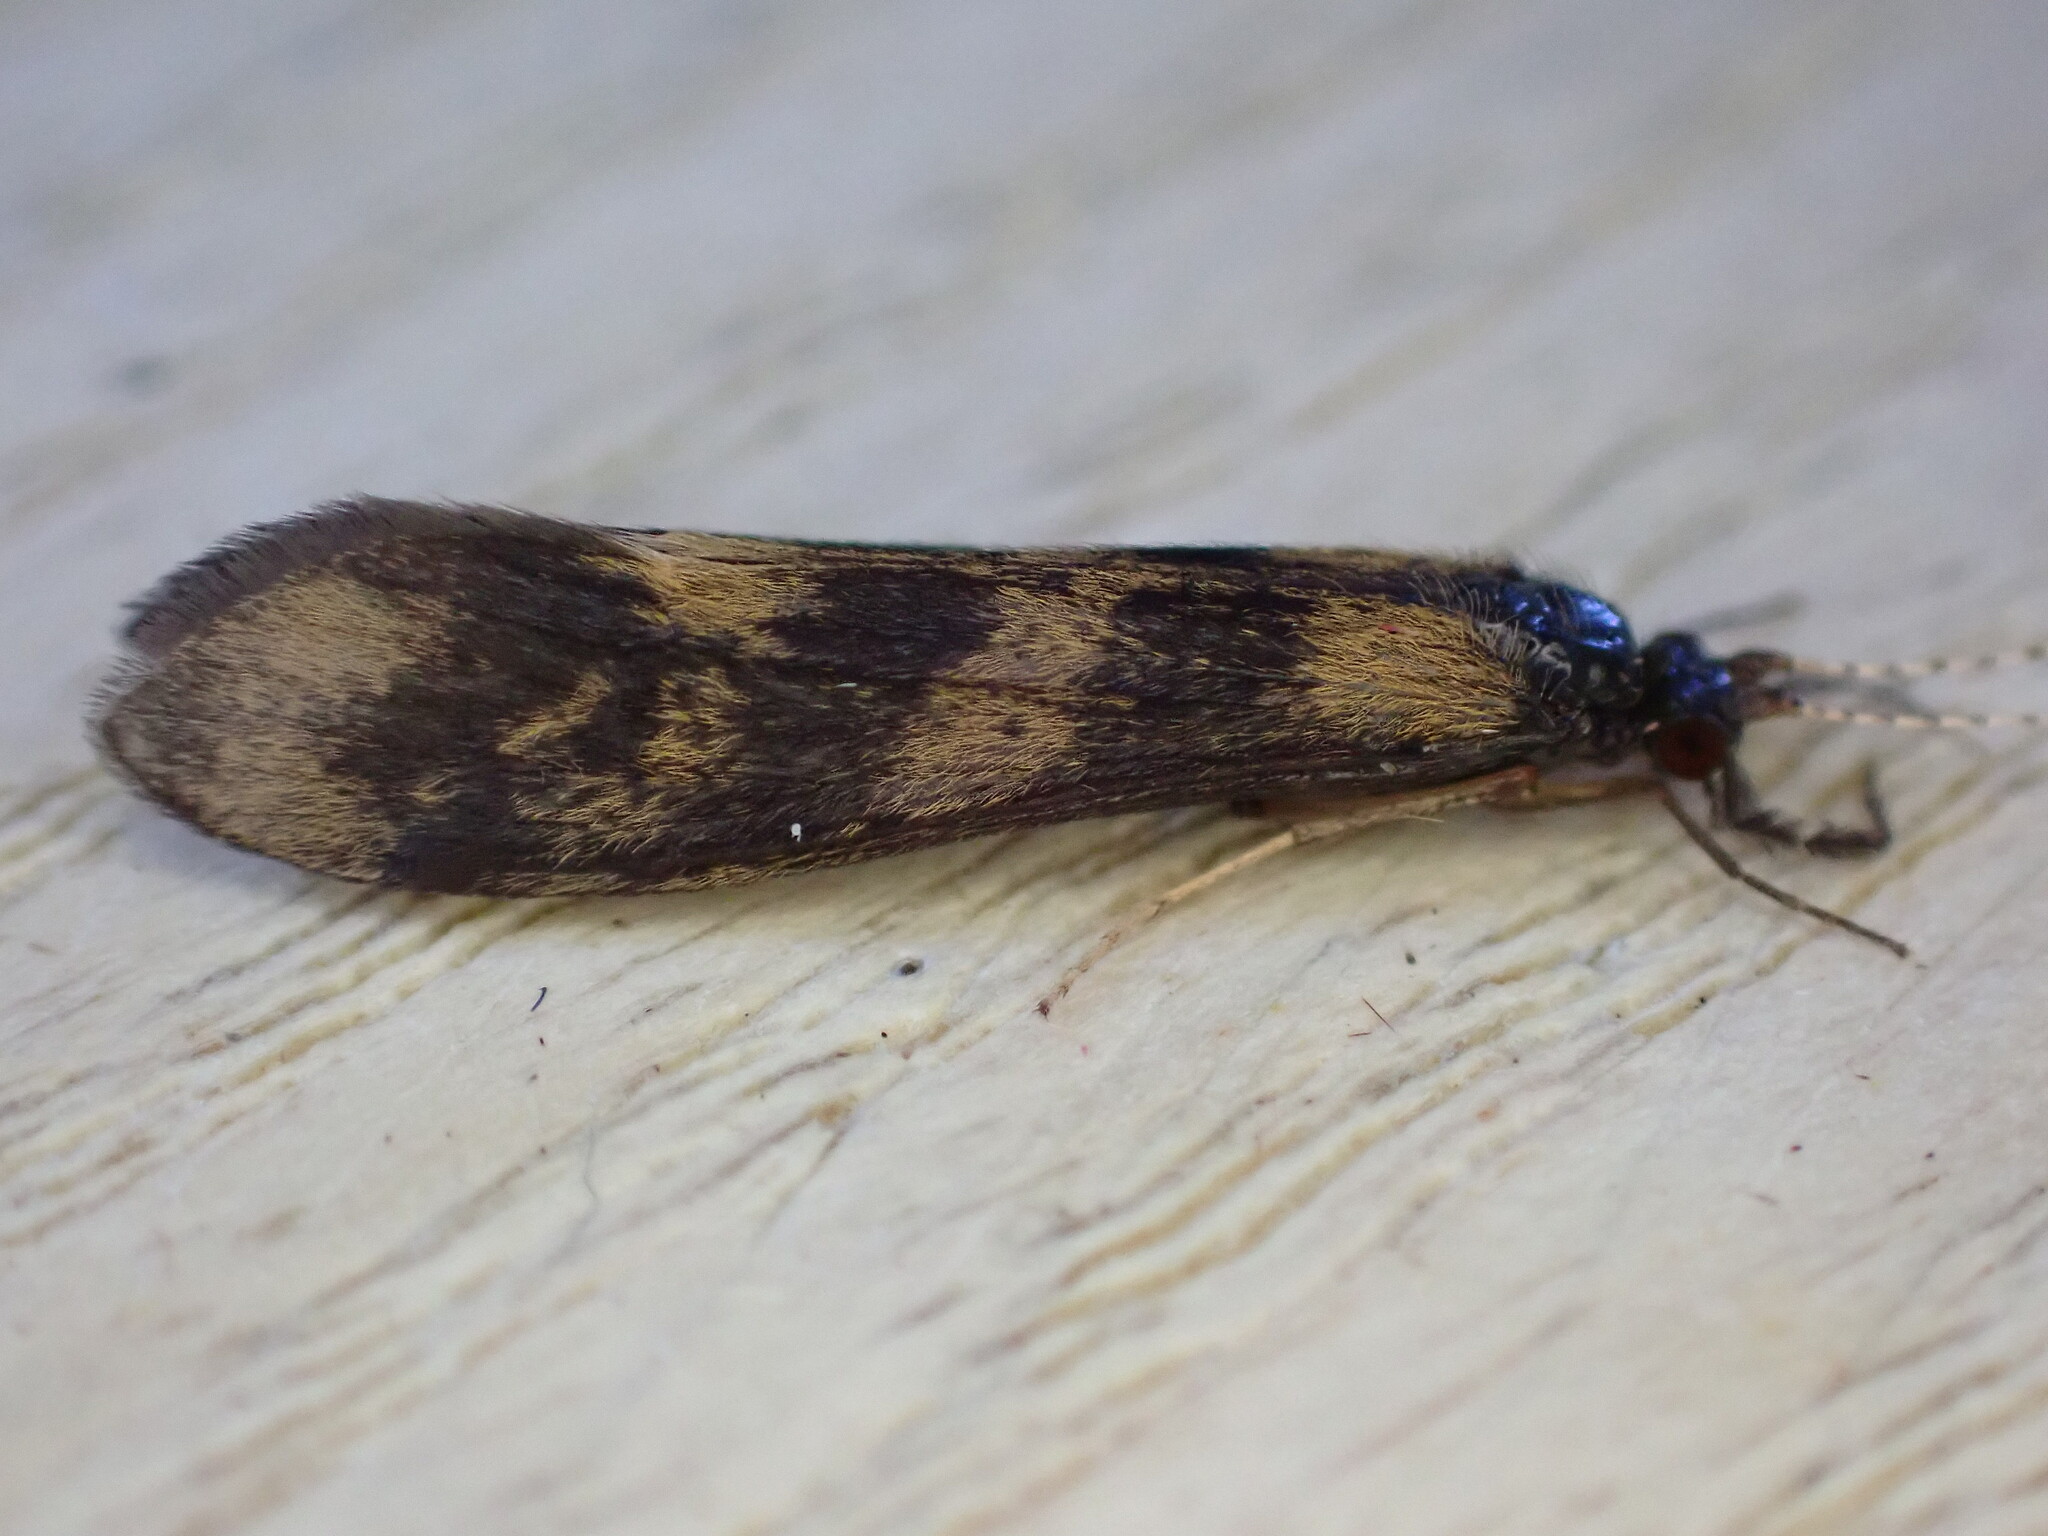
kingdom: Animalia
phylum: Arthropoda
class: Insecta
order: Trichoptera
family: Leptoceridae
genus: Mystacides
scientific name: Mystacides longicornis
